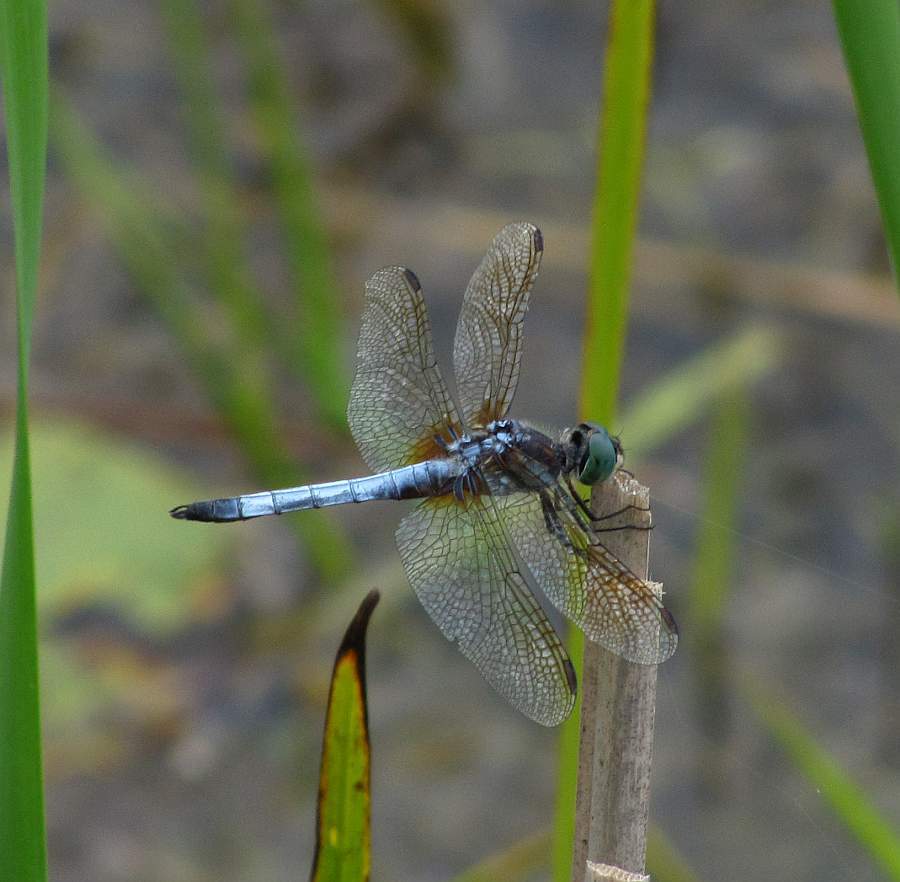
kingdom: Animalia
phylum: Arthropoda
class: Insecta
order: Odonata
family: Libellulidae
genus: Pachydiplax
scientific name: Pachydiplax longipennis
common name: Blue dasher
